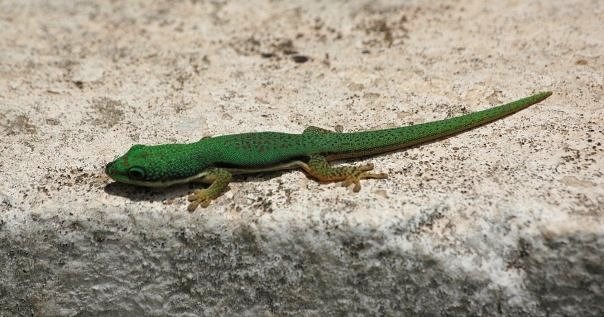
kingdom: Animalia
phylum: Chordata
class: Squamata
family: Gekkonidae
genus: Phelsuma
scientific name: Phelsuma lineata
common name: Lined day gecko
